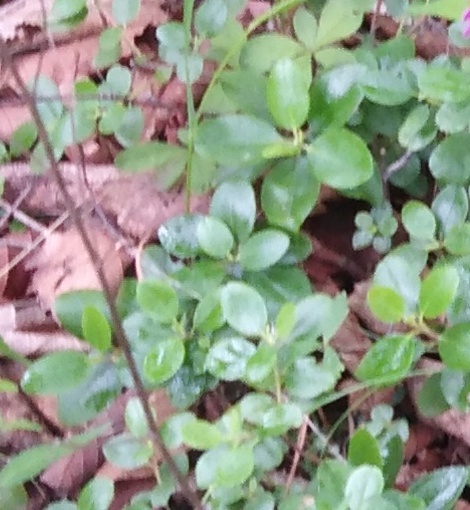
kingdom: Plantae
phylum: Tracheophyta
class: Magnoliopsida
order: Ericales
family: Ericaceae
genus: Rhododendron
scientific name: Rhododendron sichotense
